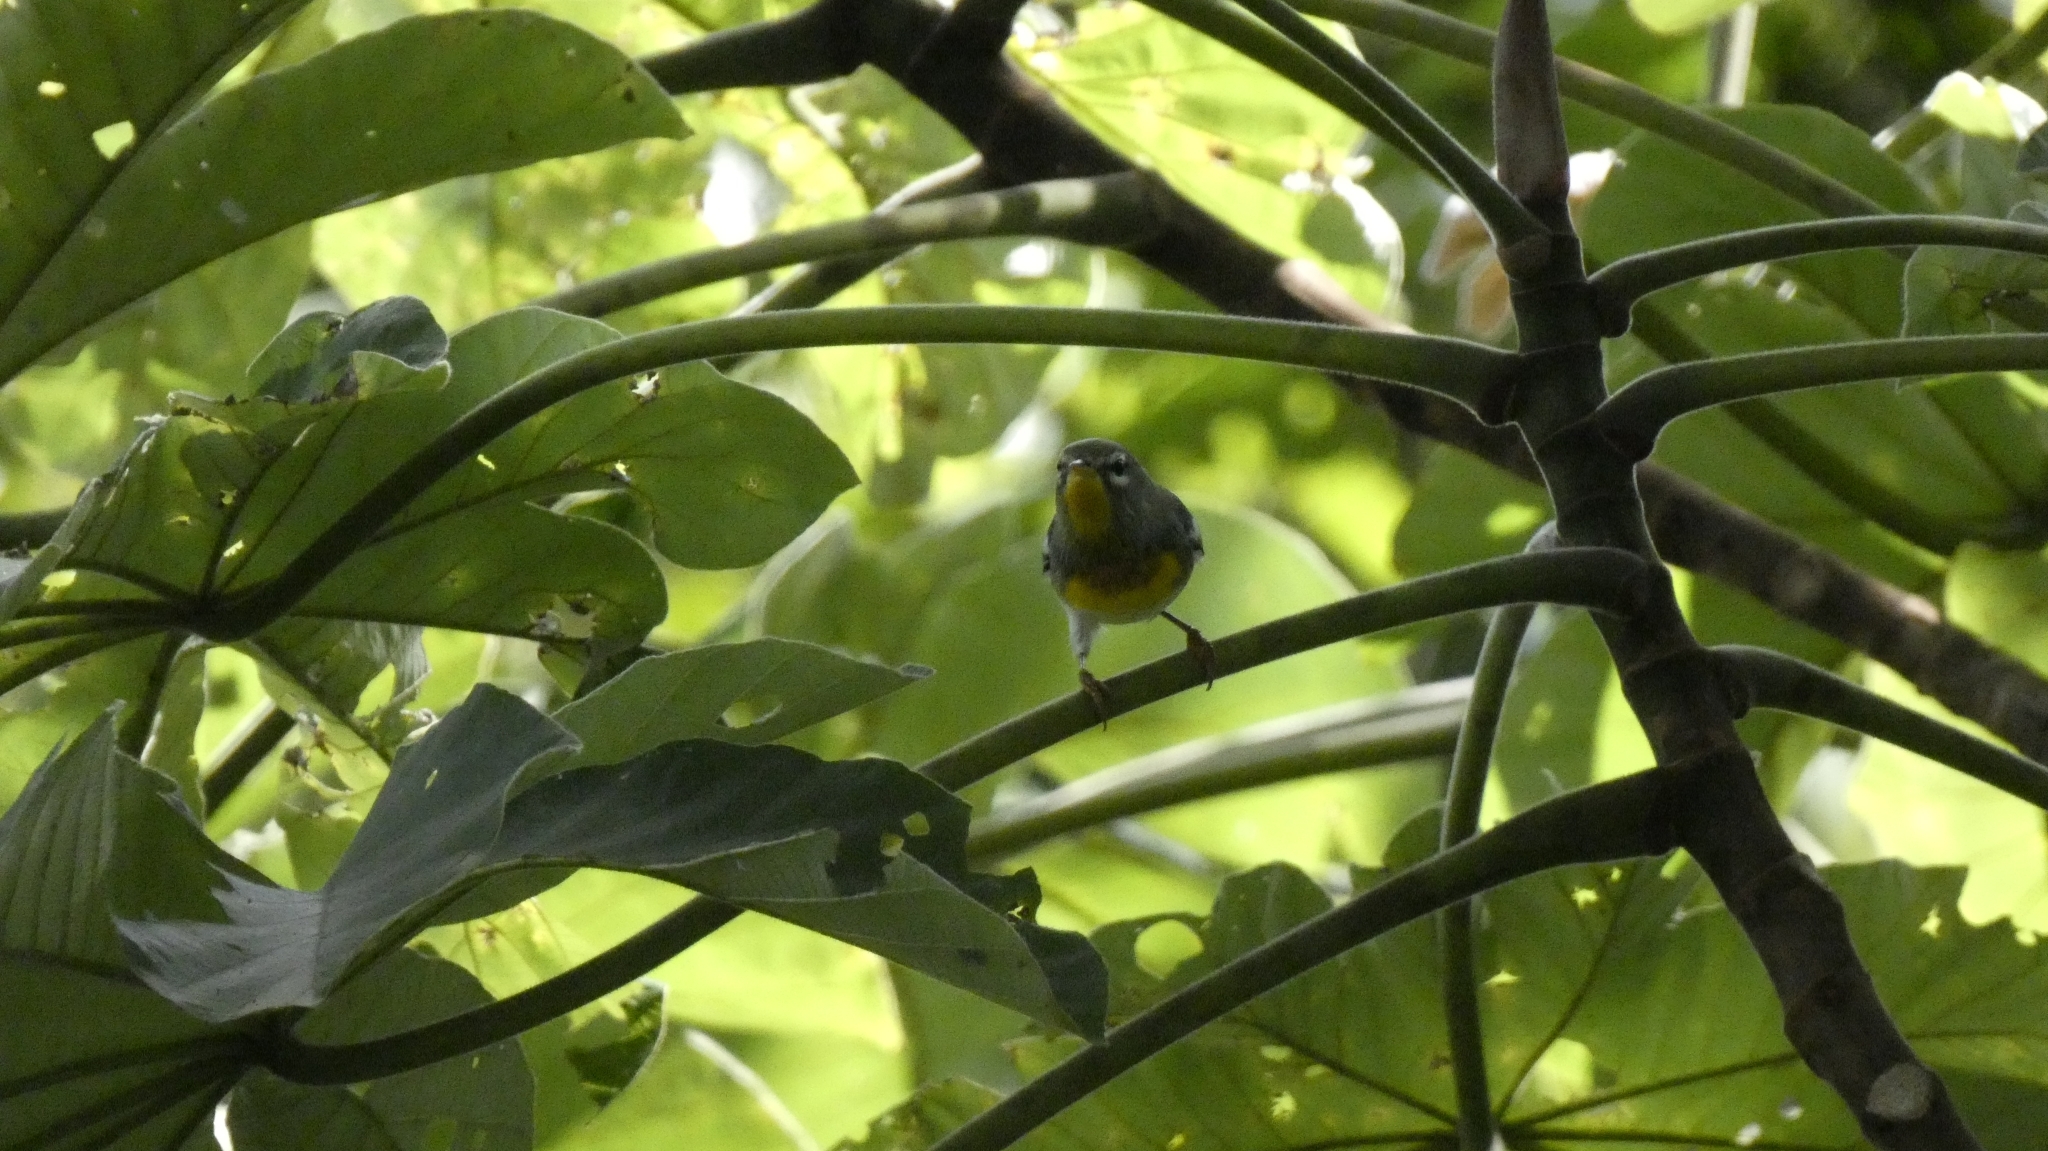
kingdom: Animalia
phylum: Chordata
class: Aves
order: Passeriformes
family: Parulidae
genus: Setophaga
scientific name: Setophaga americana
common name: Northern parula
